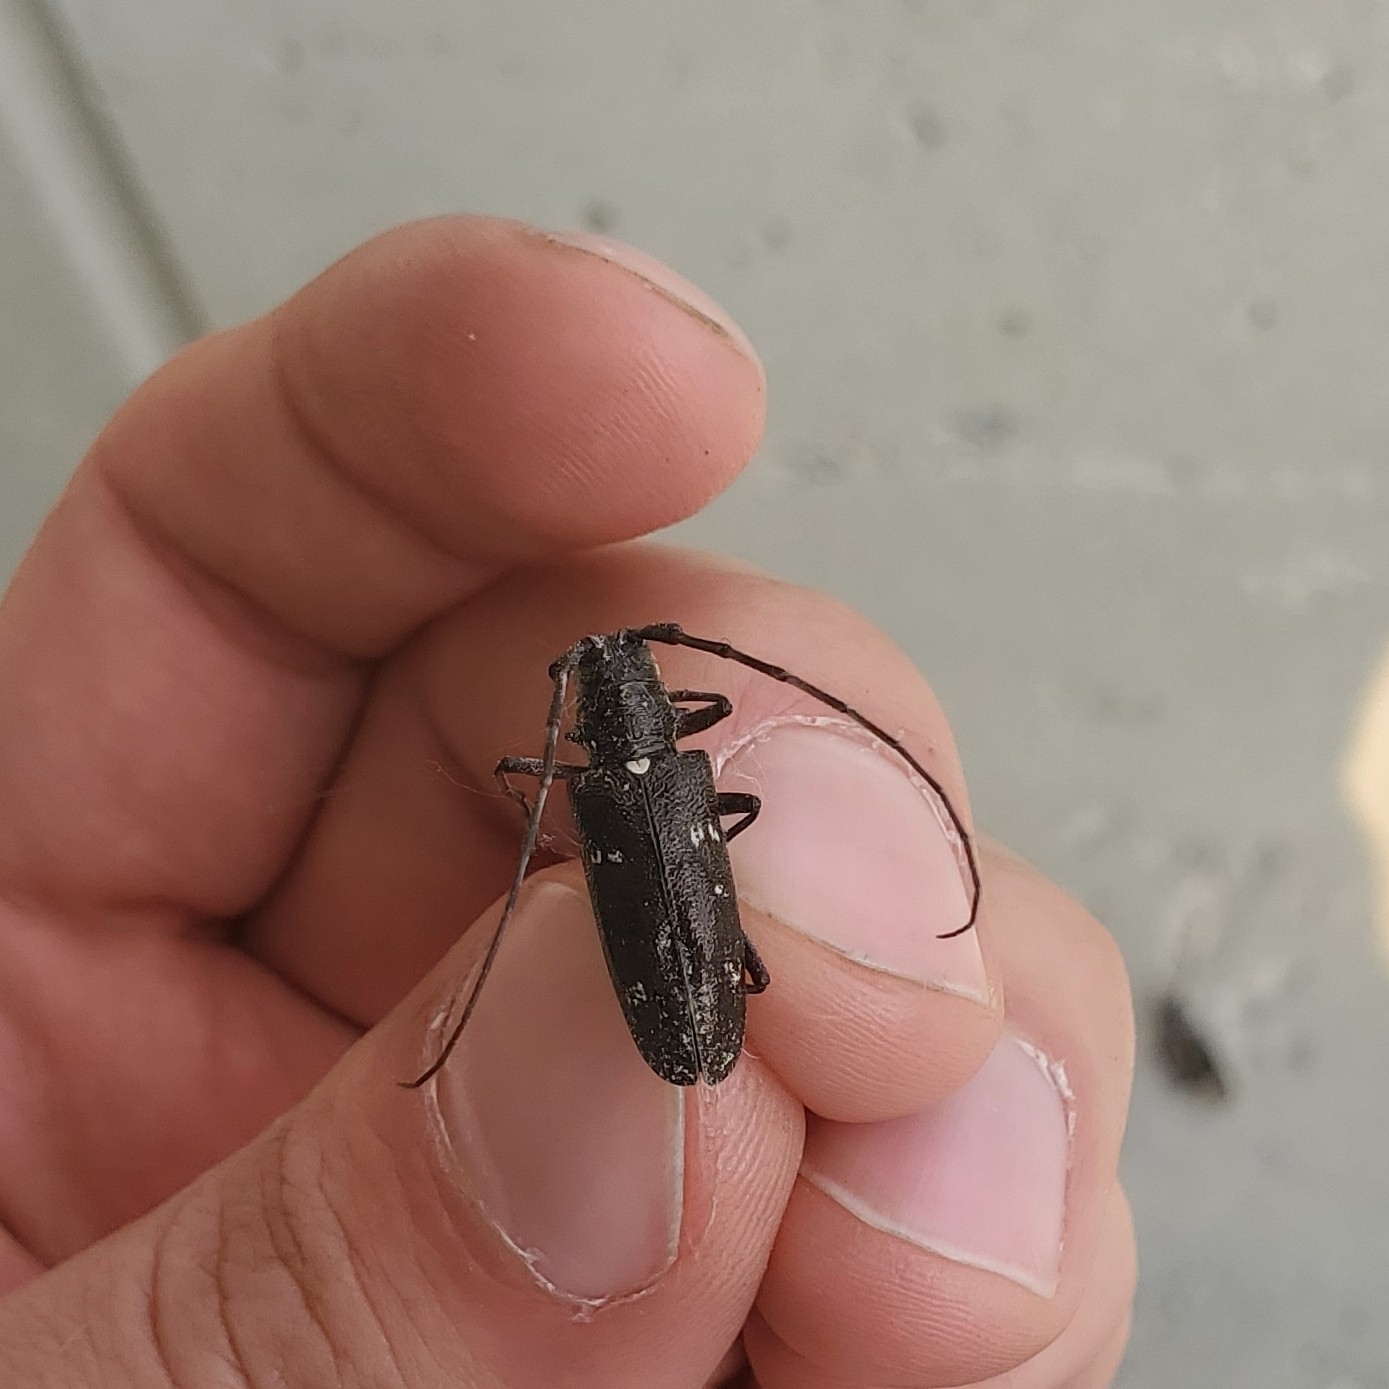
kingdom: Animalia
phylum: Arthropoda
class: Insecta
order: Coleoptera
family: Cerambycidae
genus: Monochamus
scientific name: Monochamus scutellatus
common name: White-spotted sawyer beetle
